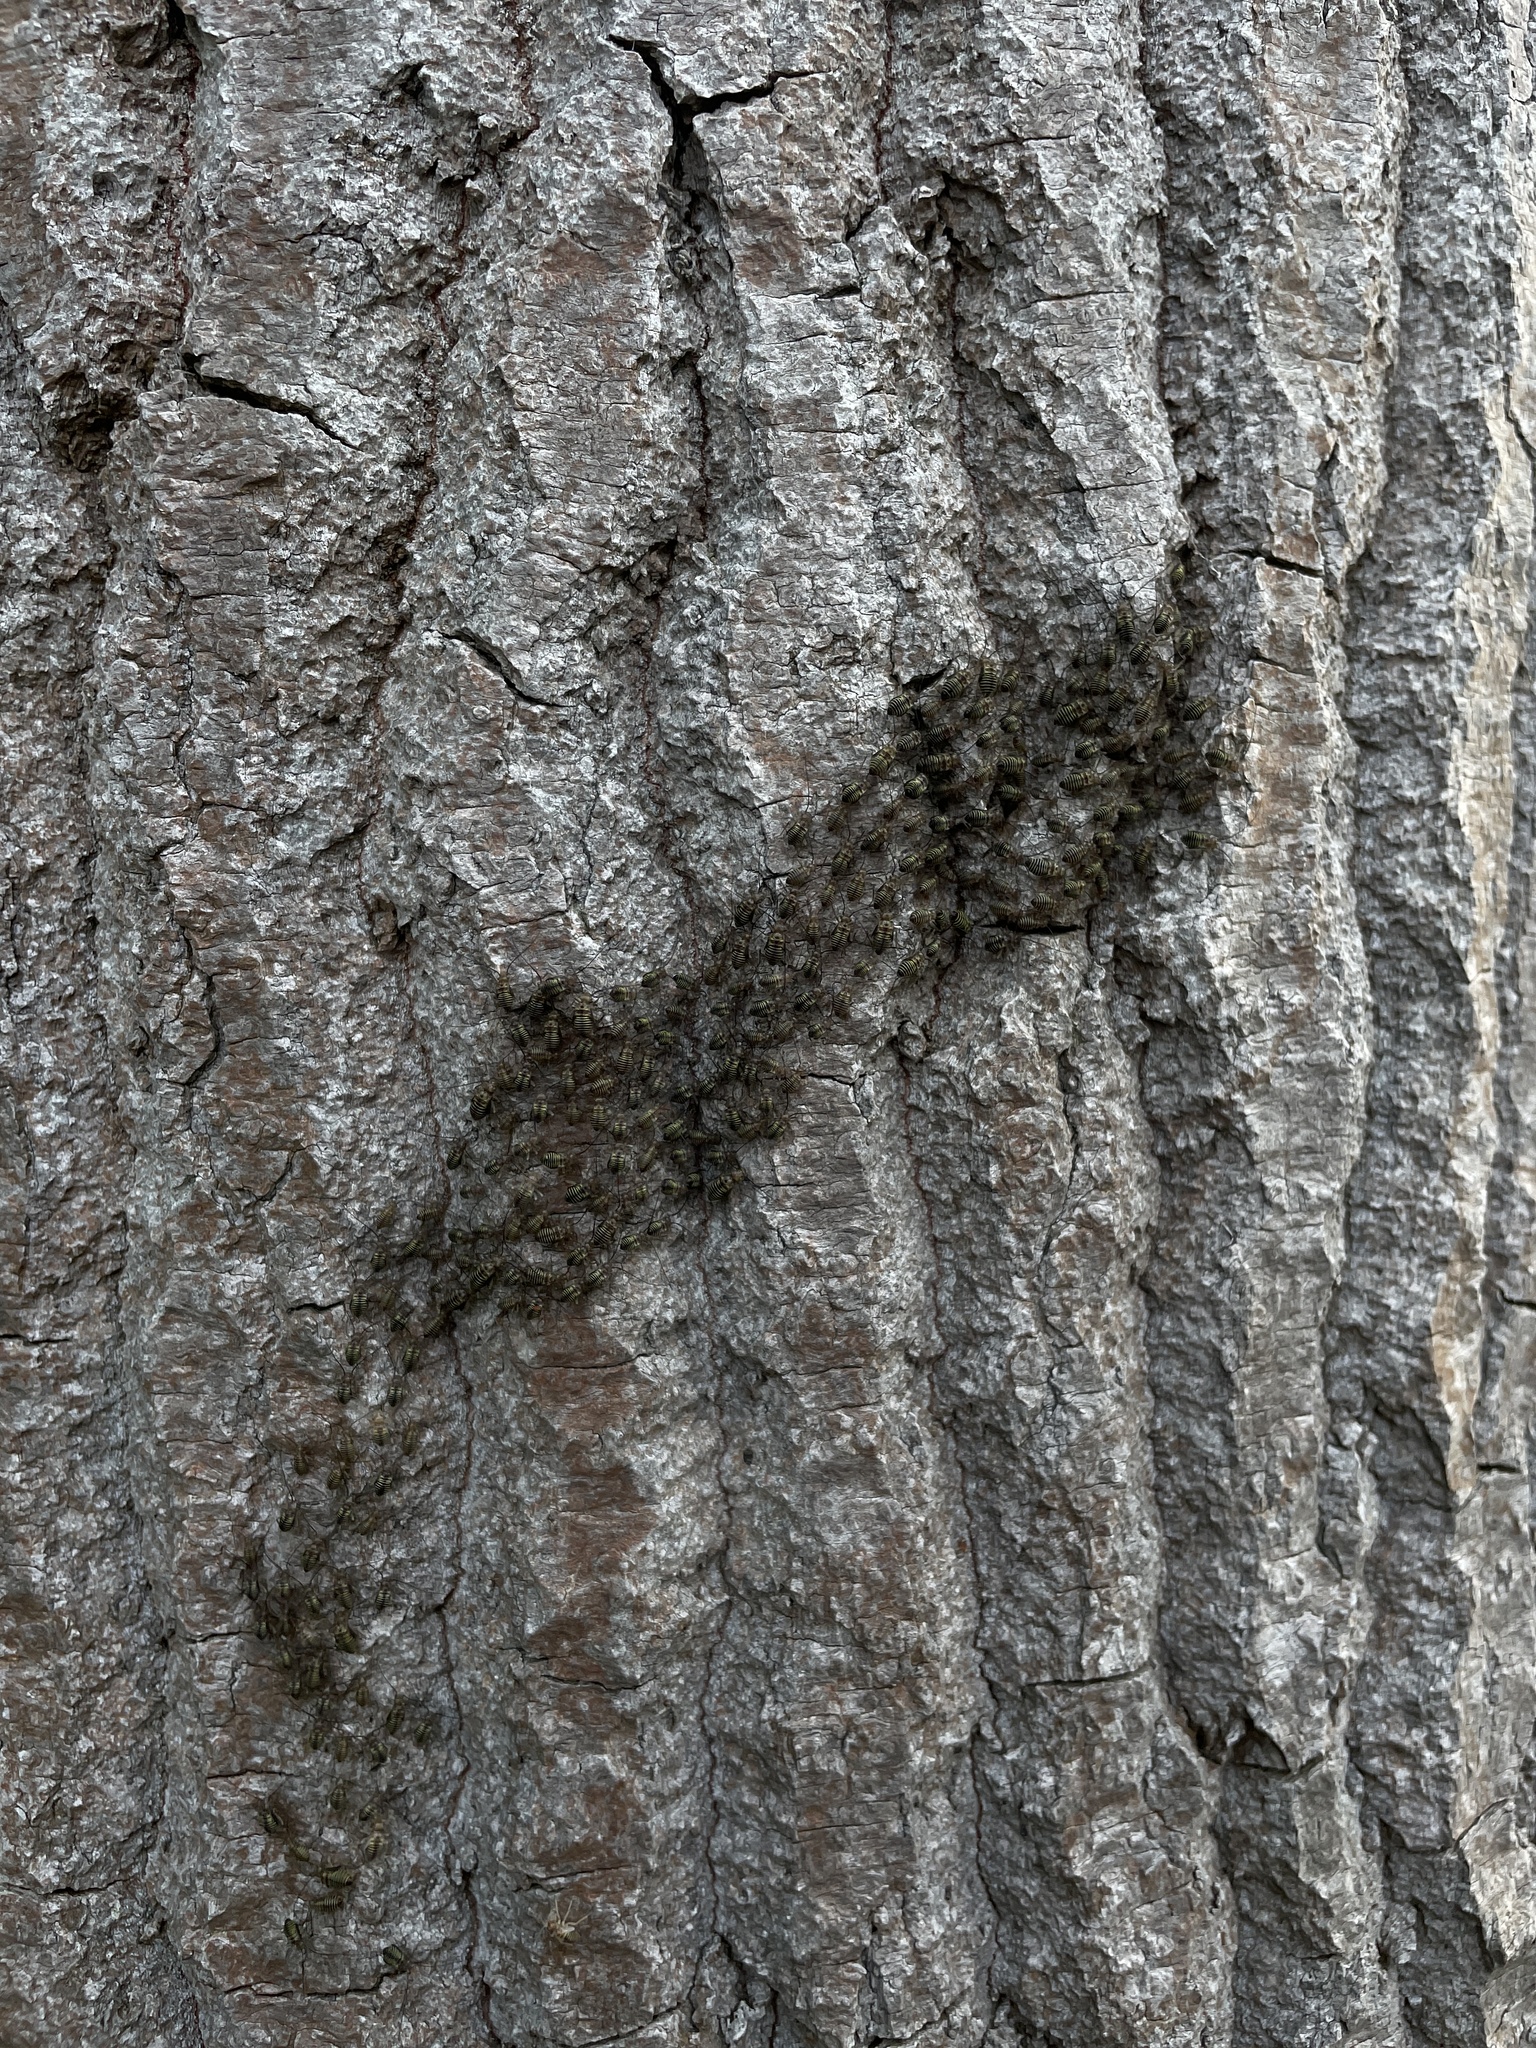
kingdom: Animalia
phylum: Arthropoda
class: Insecta
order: Psocodea
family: Psocidae
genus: Cerastipsocus
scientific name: Cerastipsocus venosus
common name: Tree cattle
